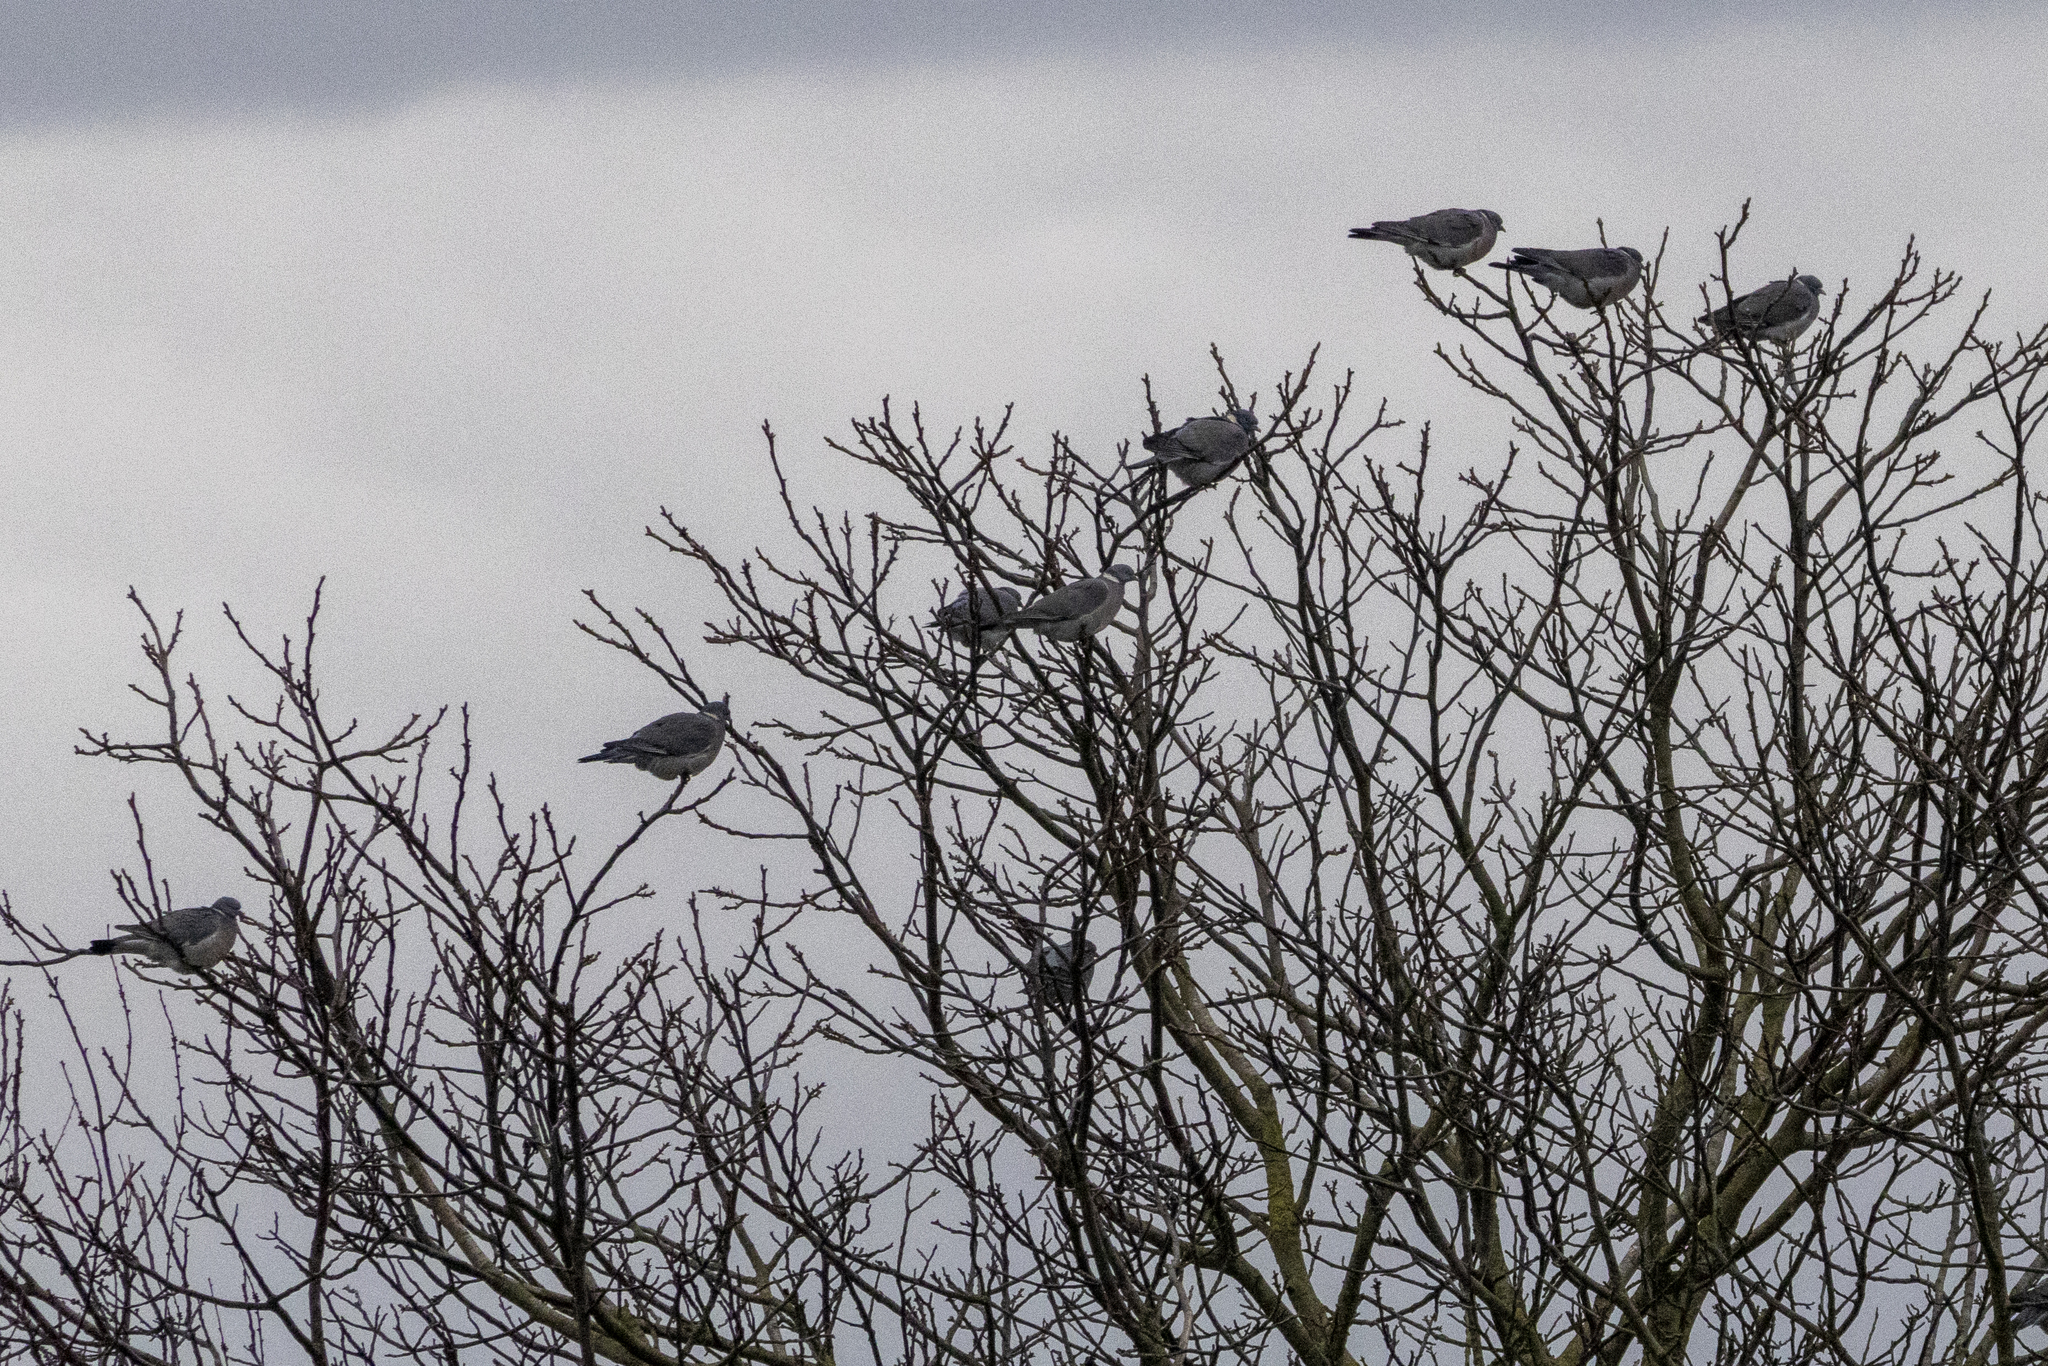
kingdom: Animalia
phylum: Chordata
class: Aves
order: Columbiformes
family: Columbidae
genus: Columba
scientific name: Columba palumbus
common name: Common wood pigeon
